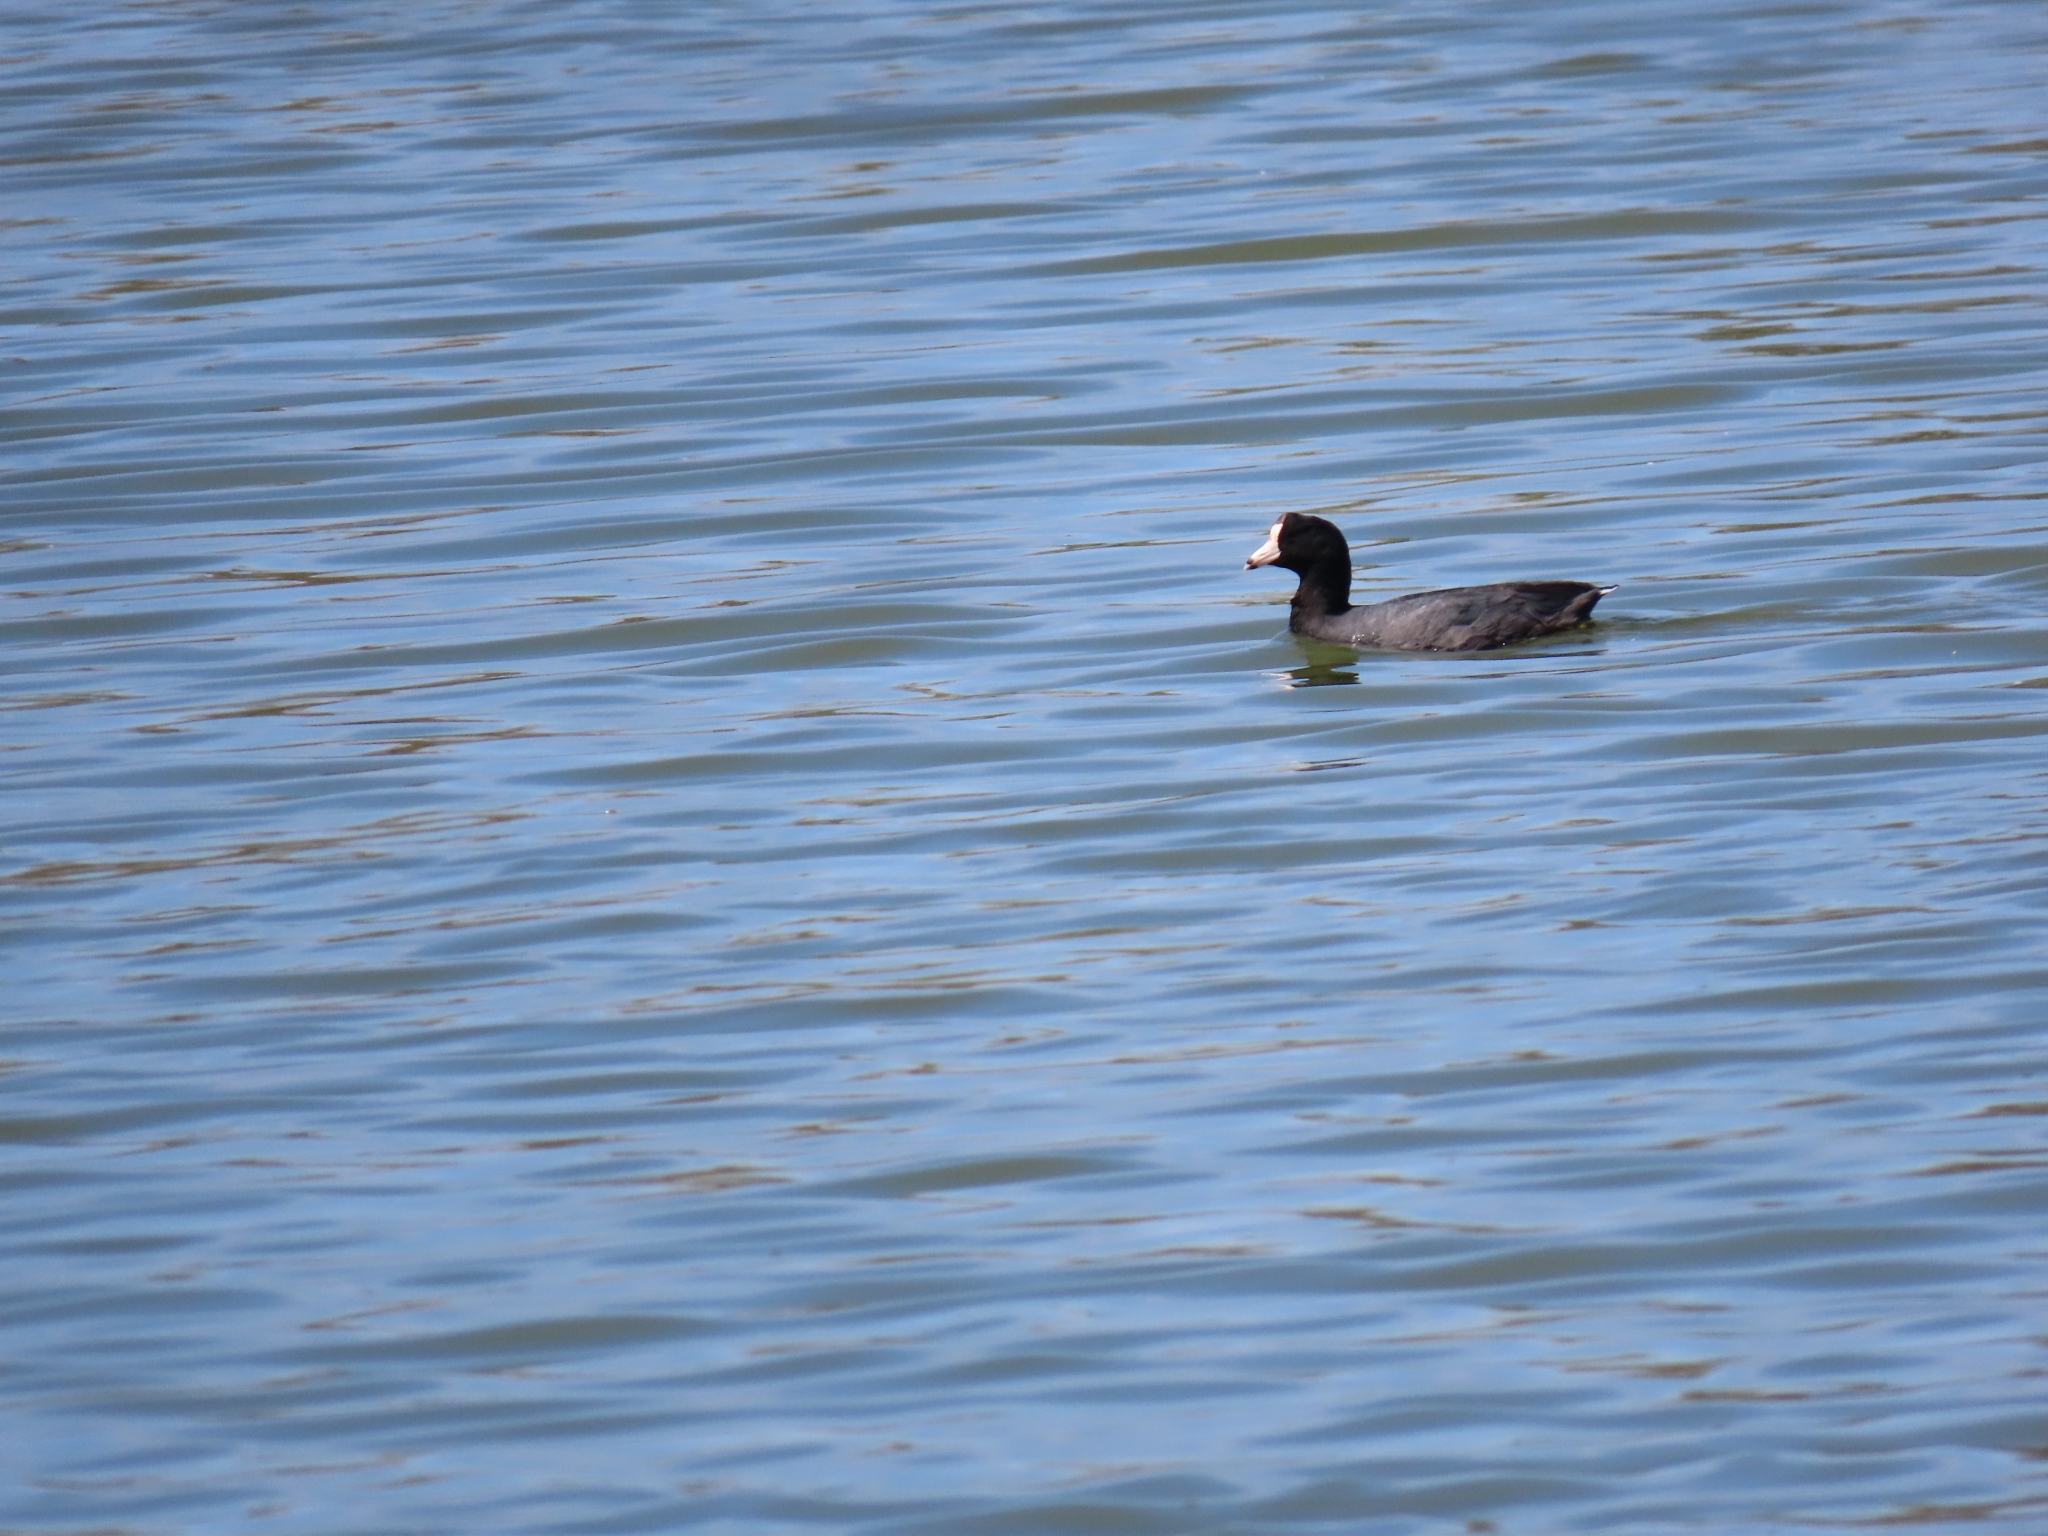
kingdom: Animalia
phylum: Chordata
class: Aves
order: Gruiformes
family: Rallidae
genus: Fulica
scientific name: Fulica americana
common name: American coot
